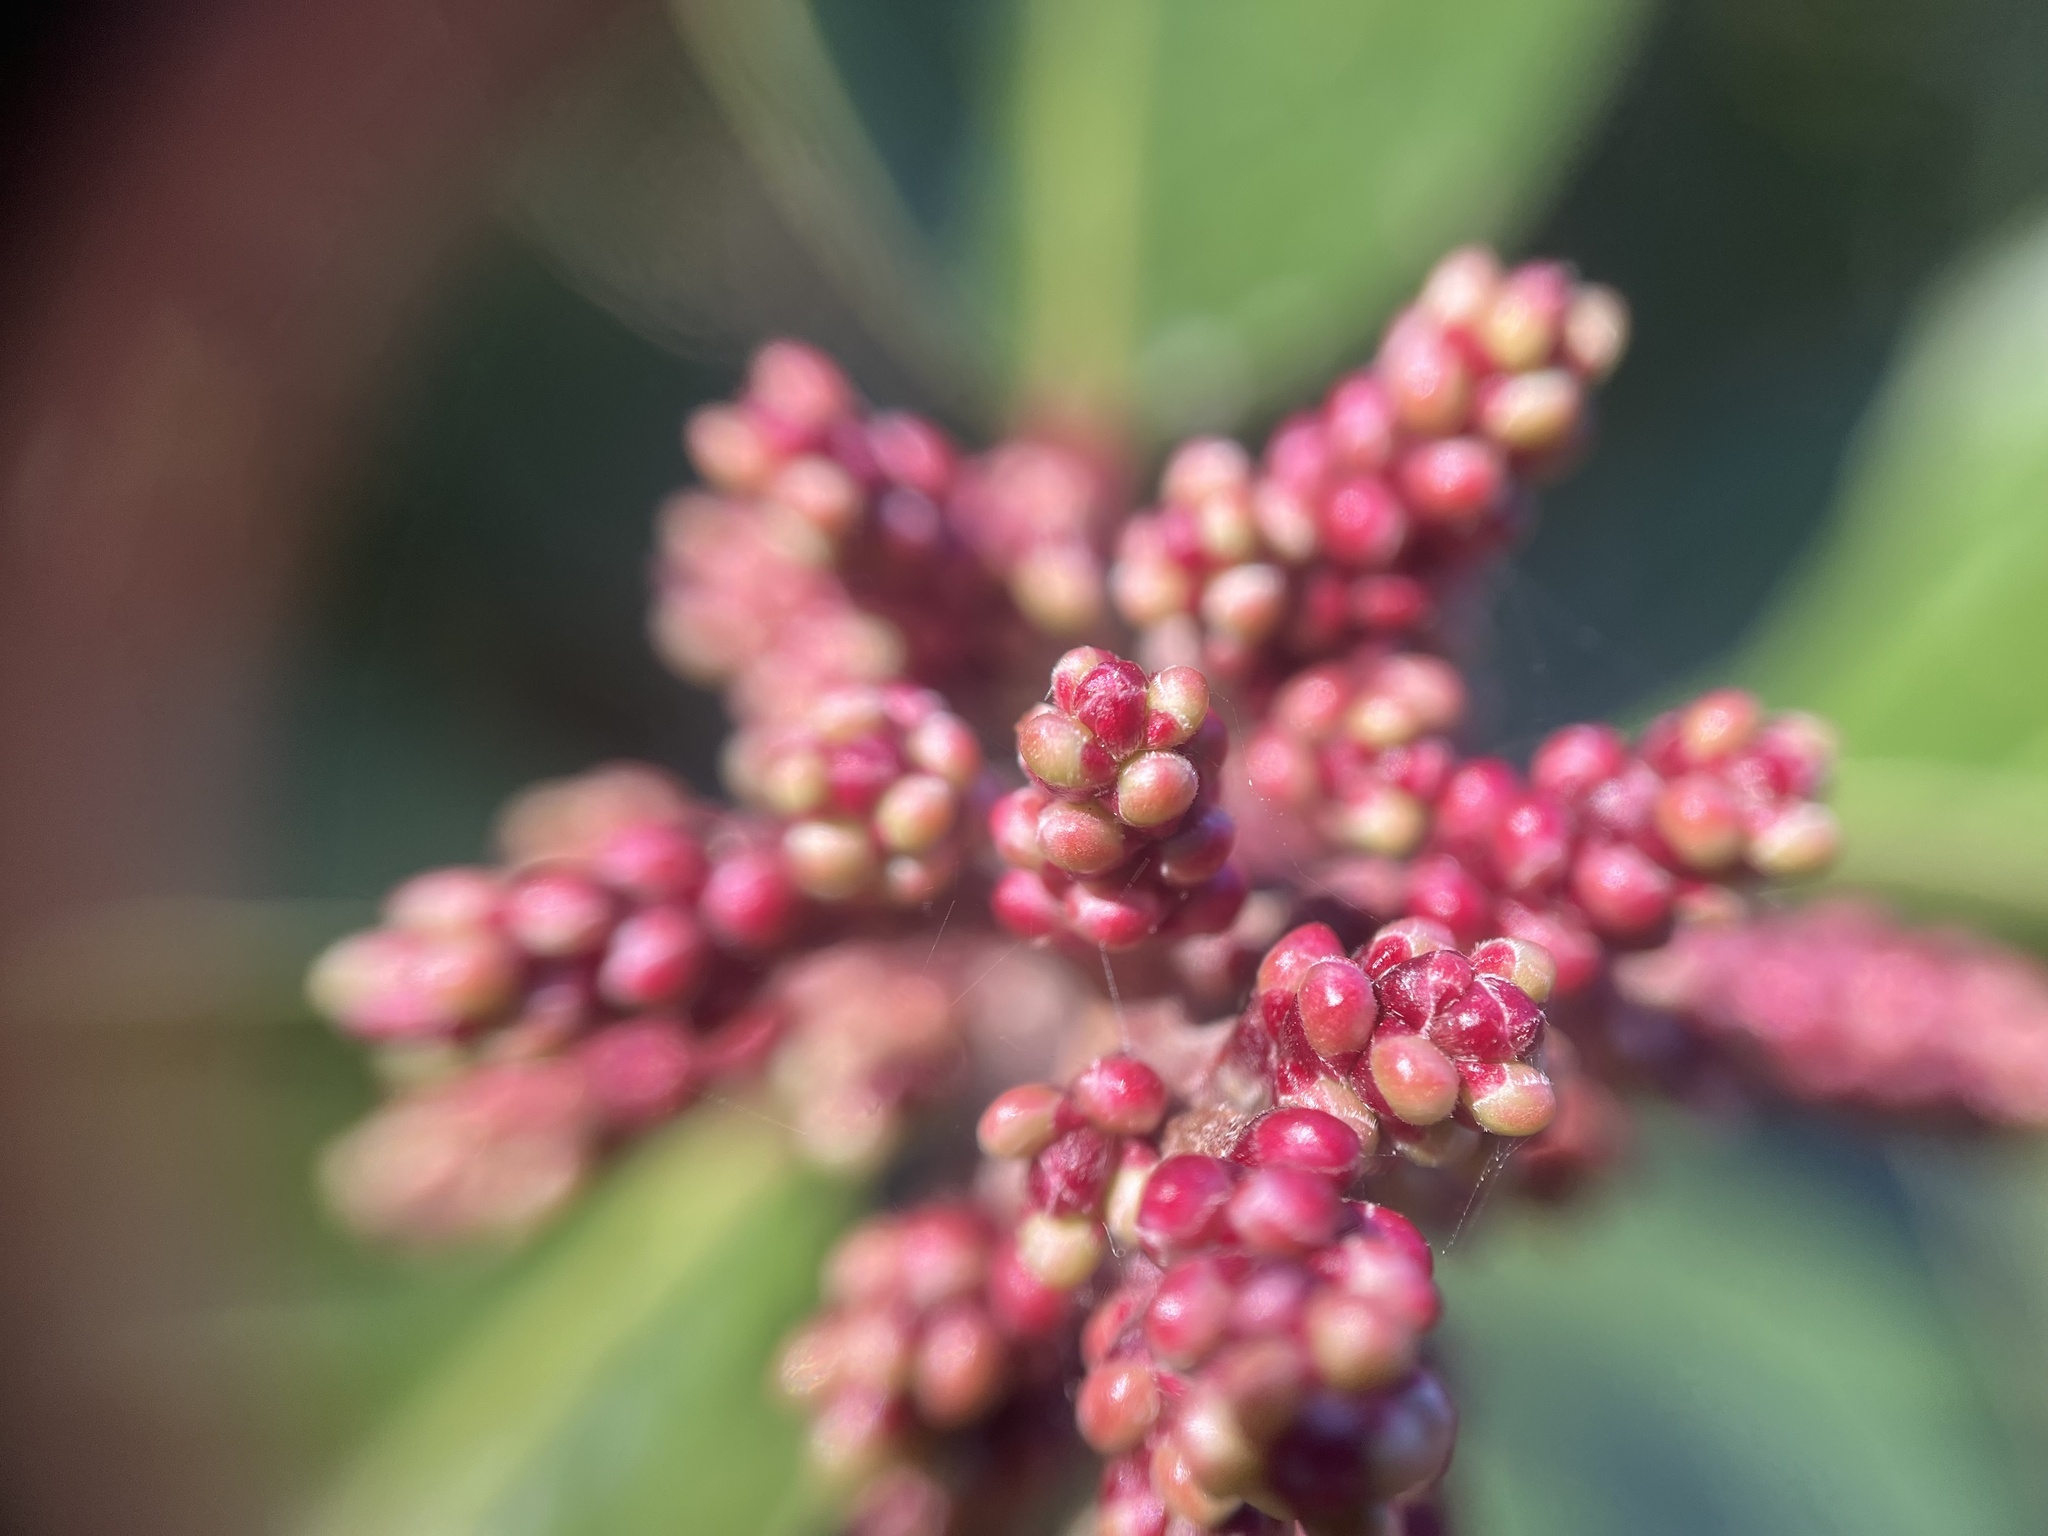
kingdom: Plantae
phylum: Tracheophyta
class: Magnoliopsida
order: Sapindales
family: Anacardiaceae
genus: Rhus
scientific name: Rhus ovata
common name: Sugar sumac
